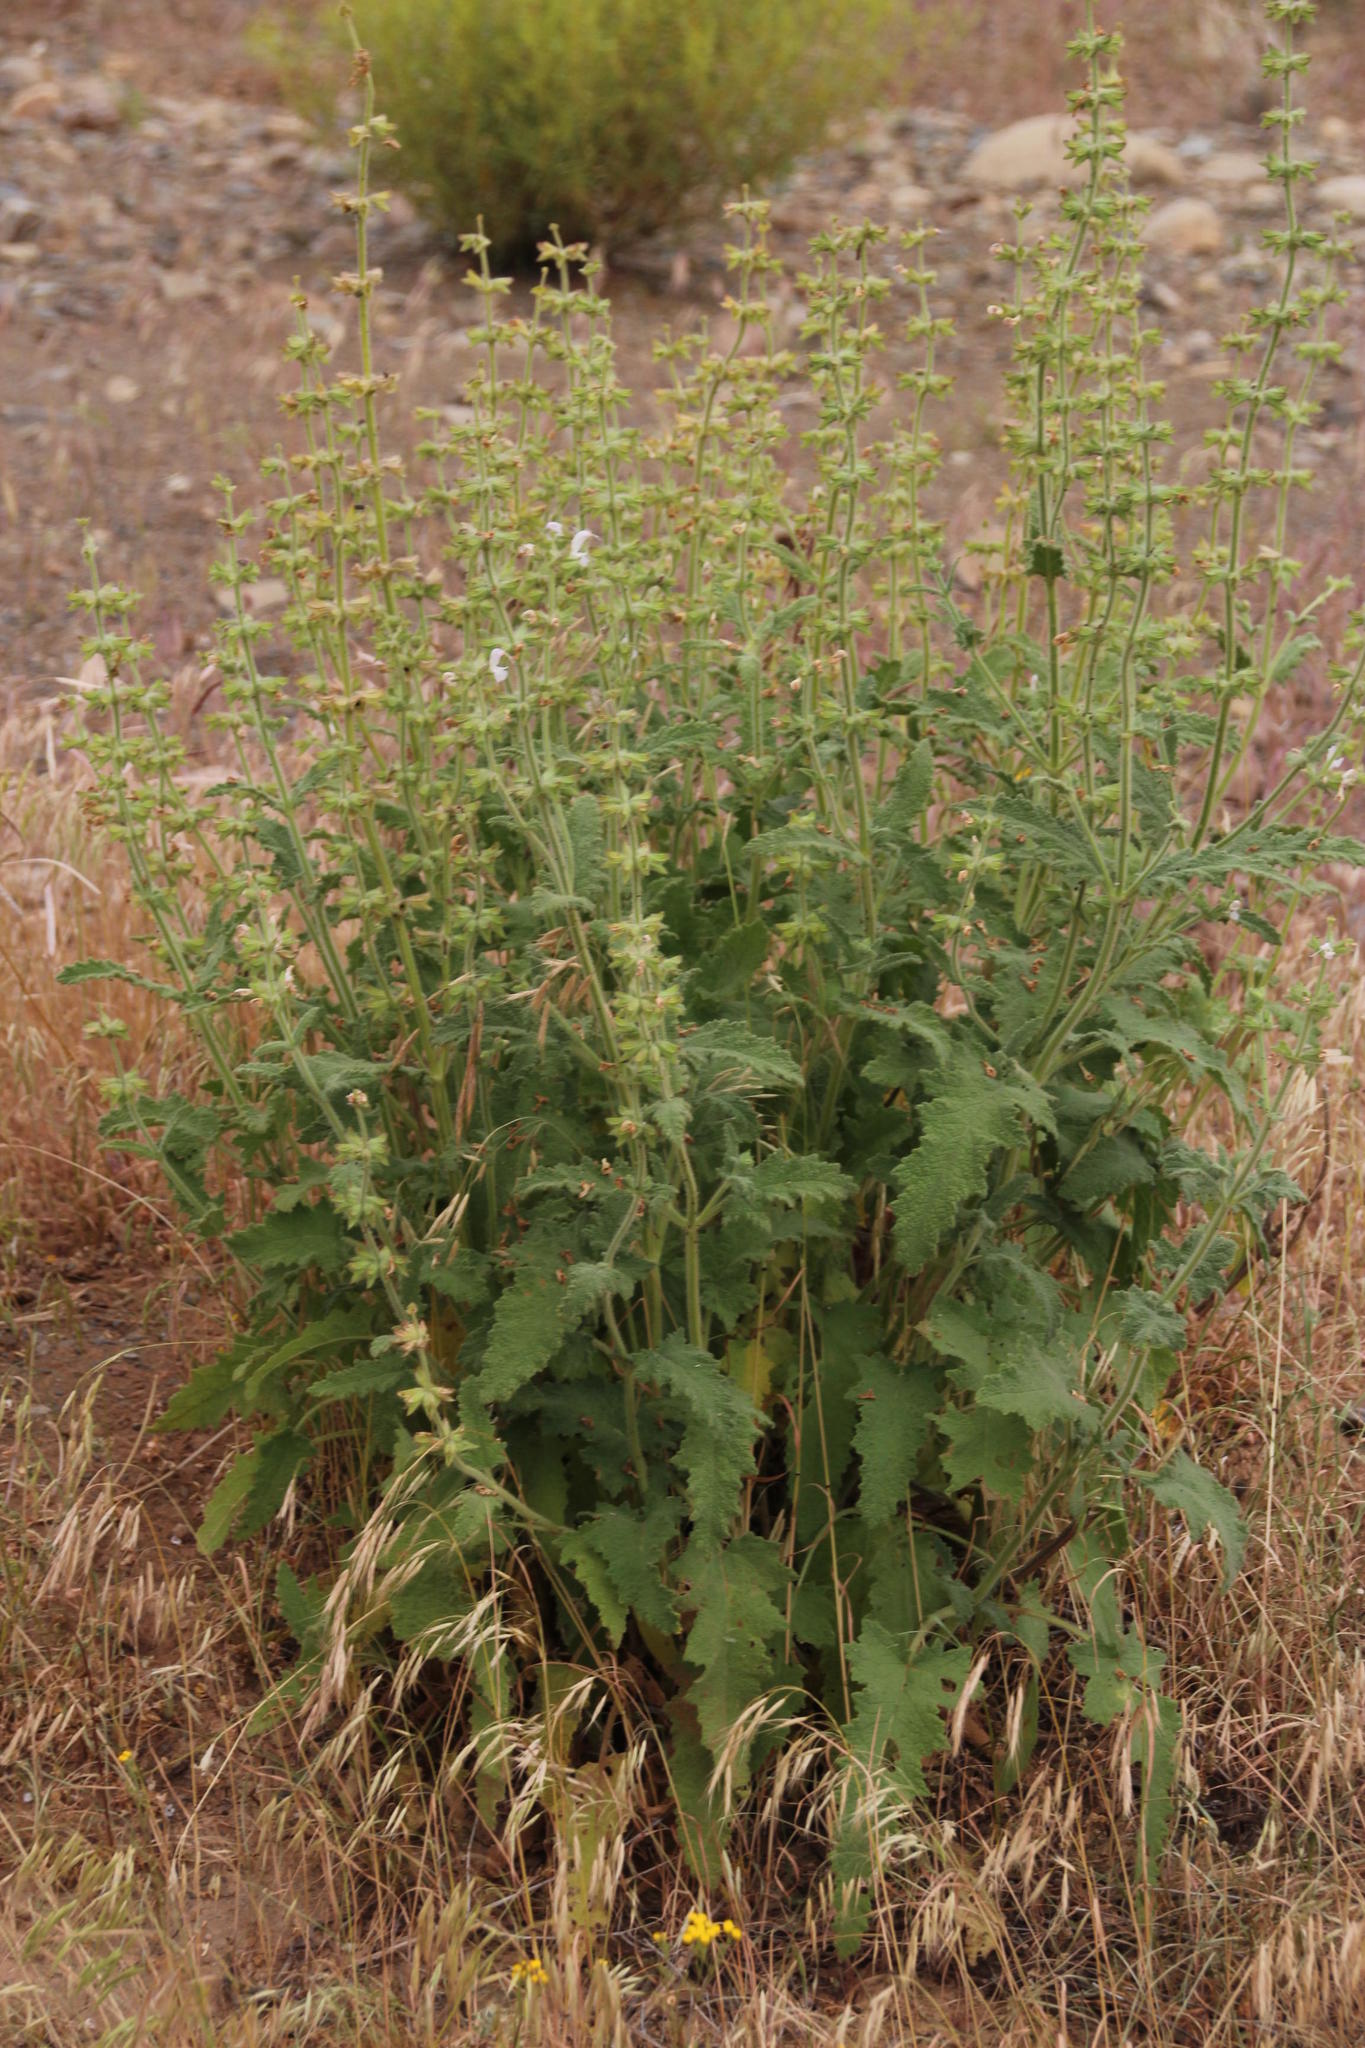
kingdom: Plantae
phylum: Tracheophyta
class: Magnoliopsida
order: Lamiales
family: Lamiaceae
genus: Salvia
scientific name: Salvia disermas
